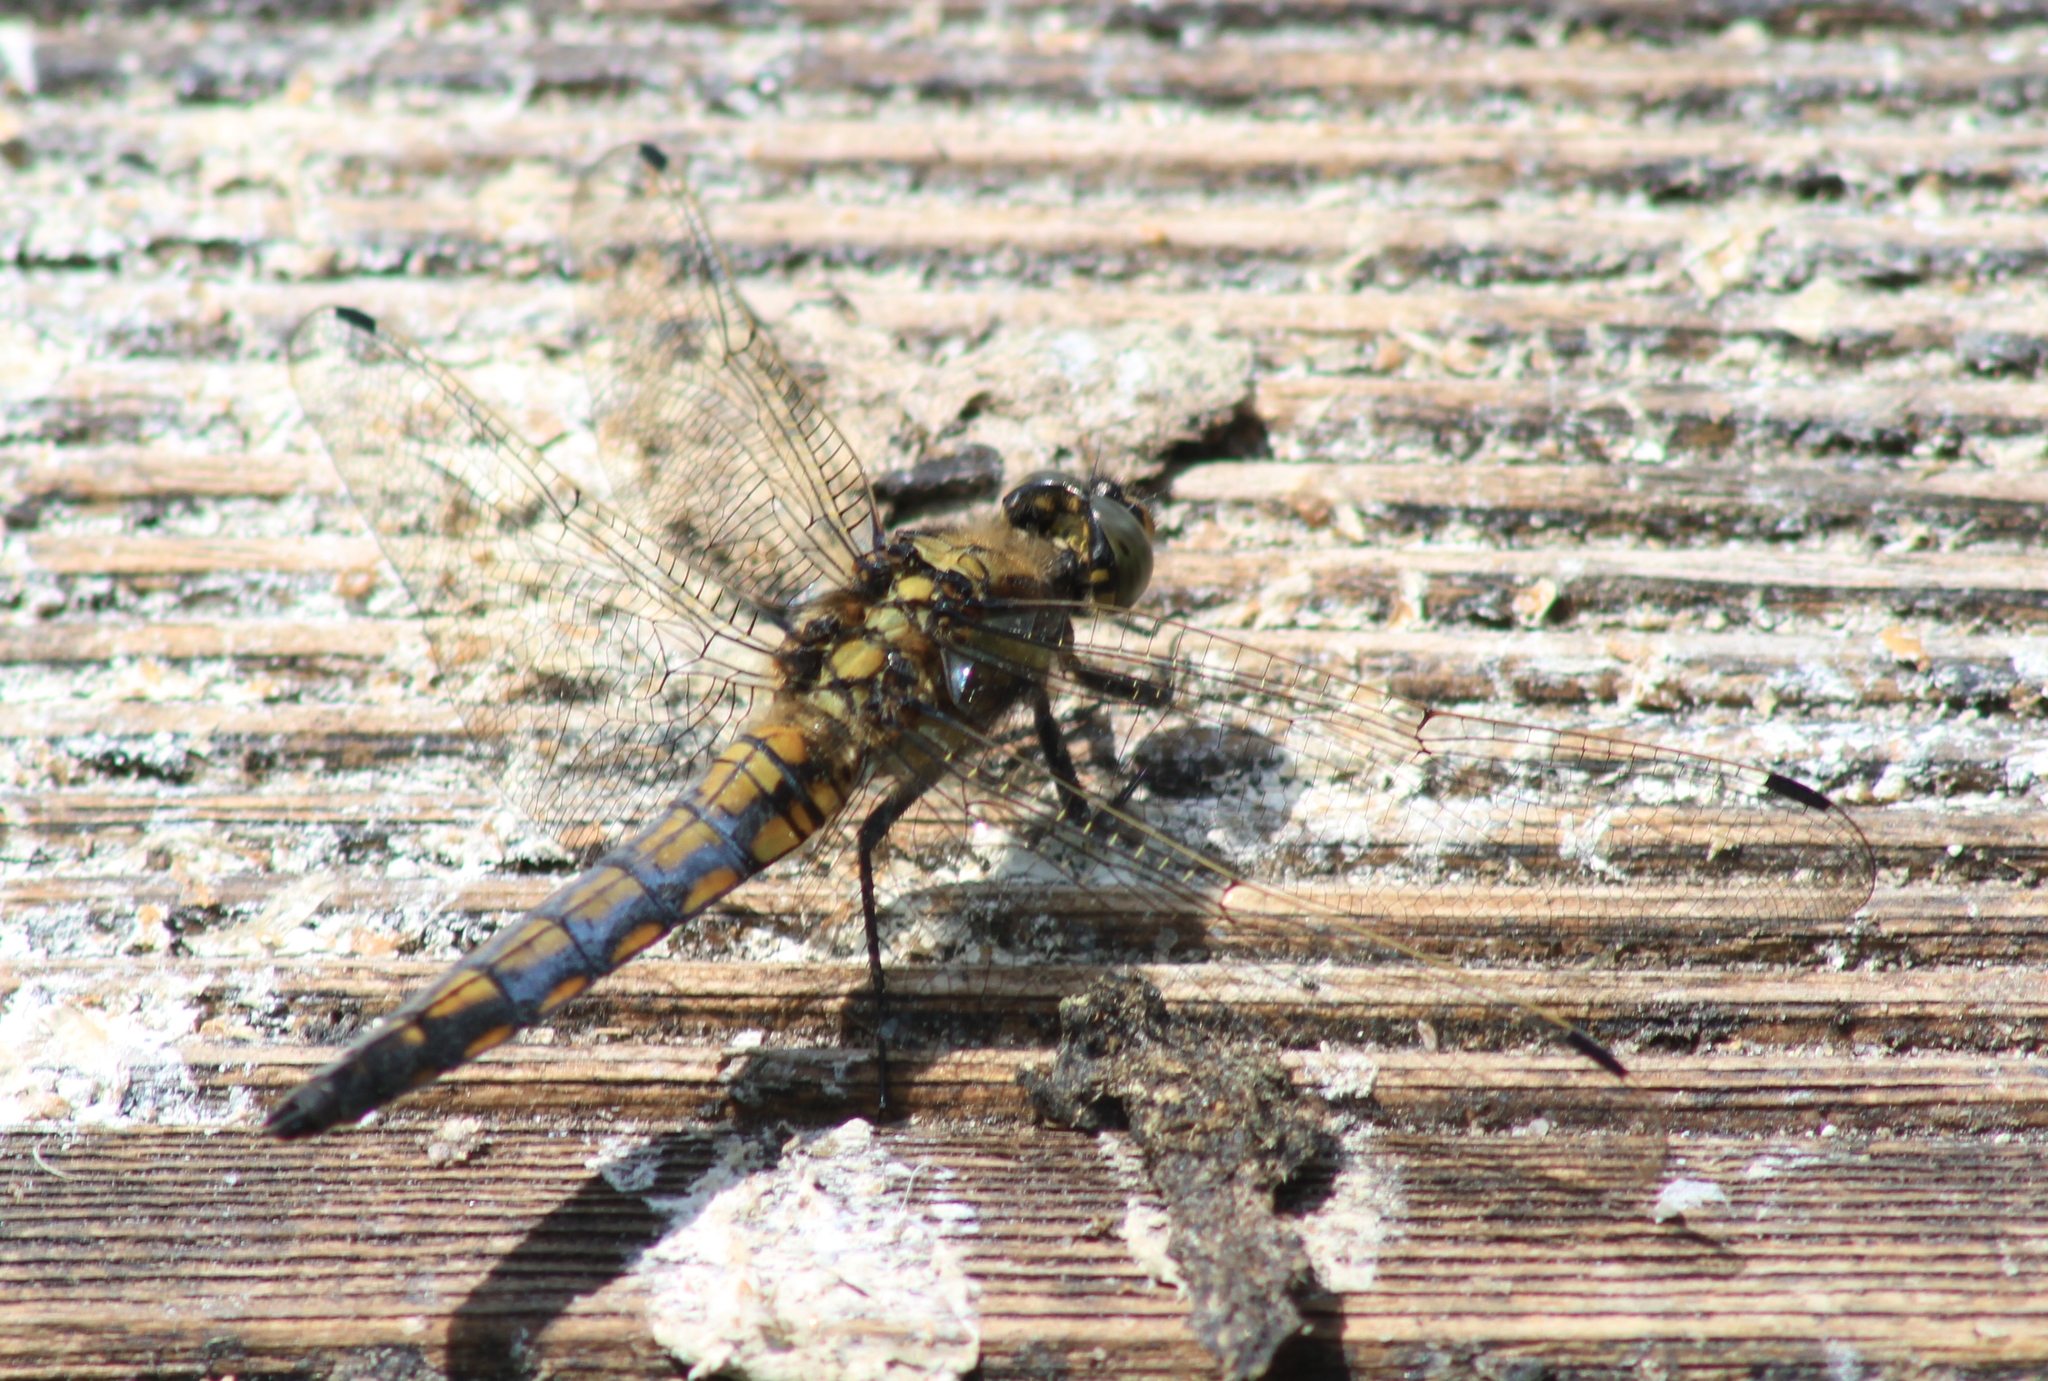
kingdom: Animalia
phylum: Arthropoda
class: Insecta
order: Odonata
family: Libellulidae
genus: Orthetrum
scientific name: Orthetrum cancellatum
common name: Black-tailed skimmer
